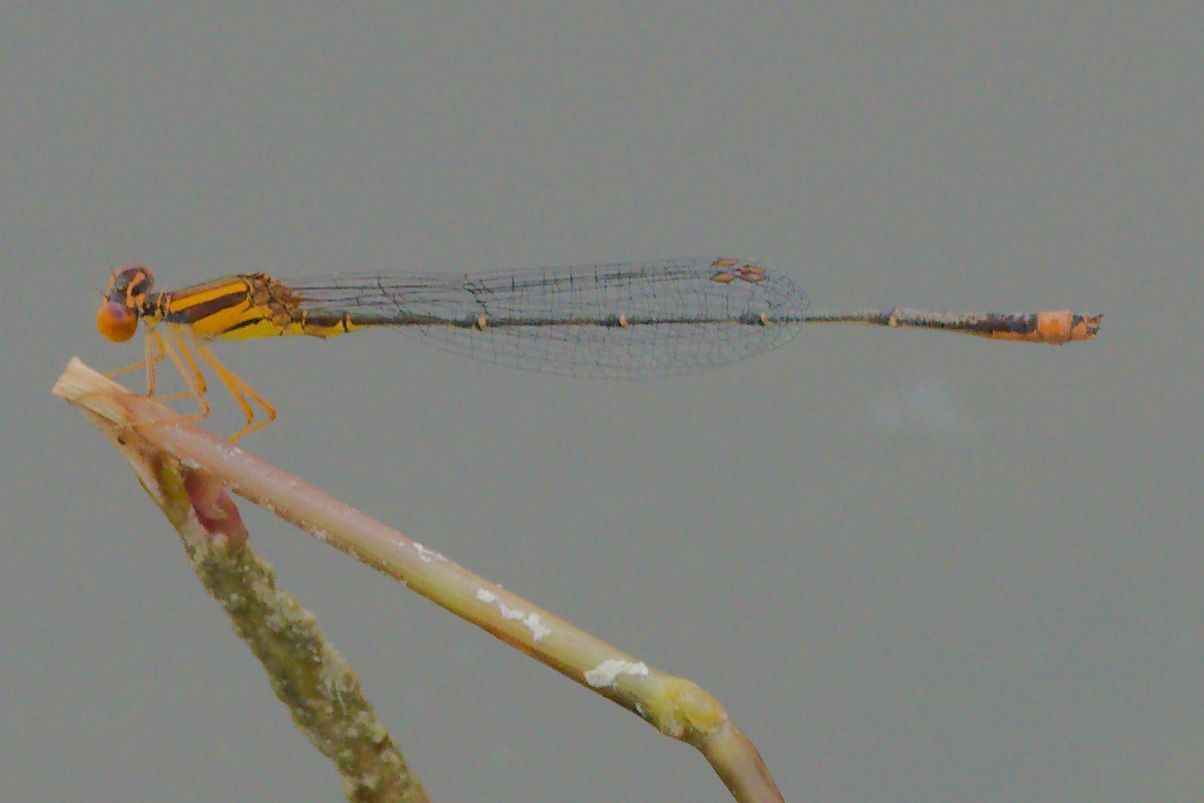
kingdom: Animalia
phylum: Arthropoda
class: Insecta
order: Odonata
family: Coenagrionidae
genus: Enallagma
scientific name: Enallagma pollutum
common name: Florida bluet
